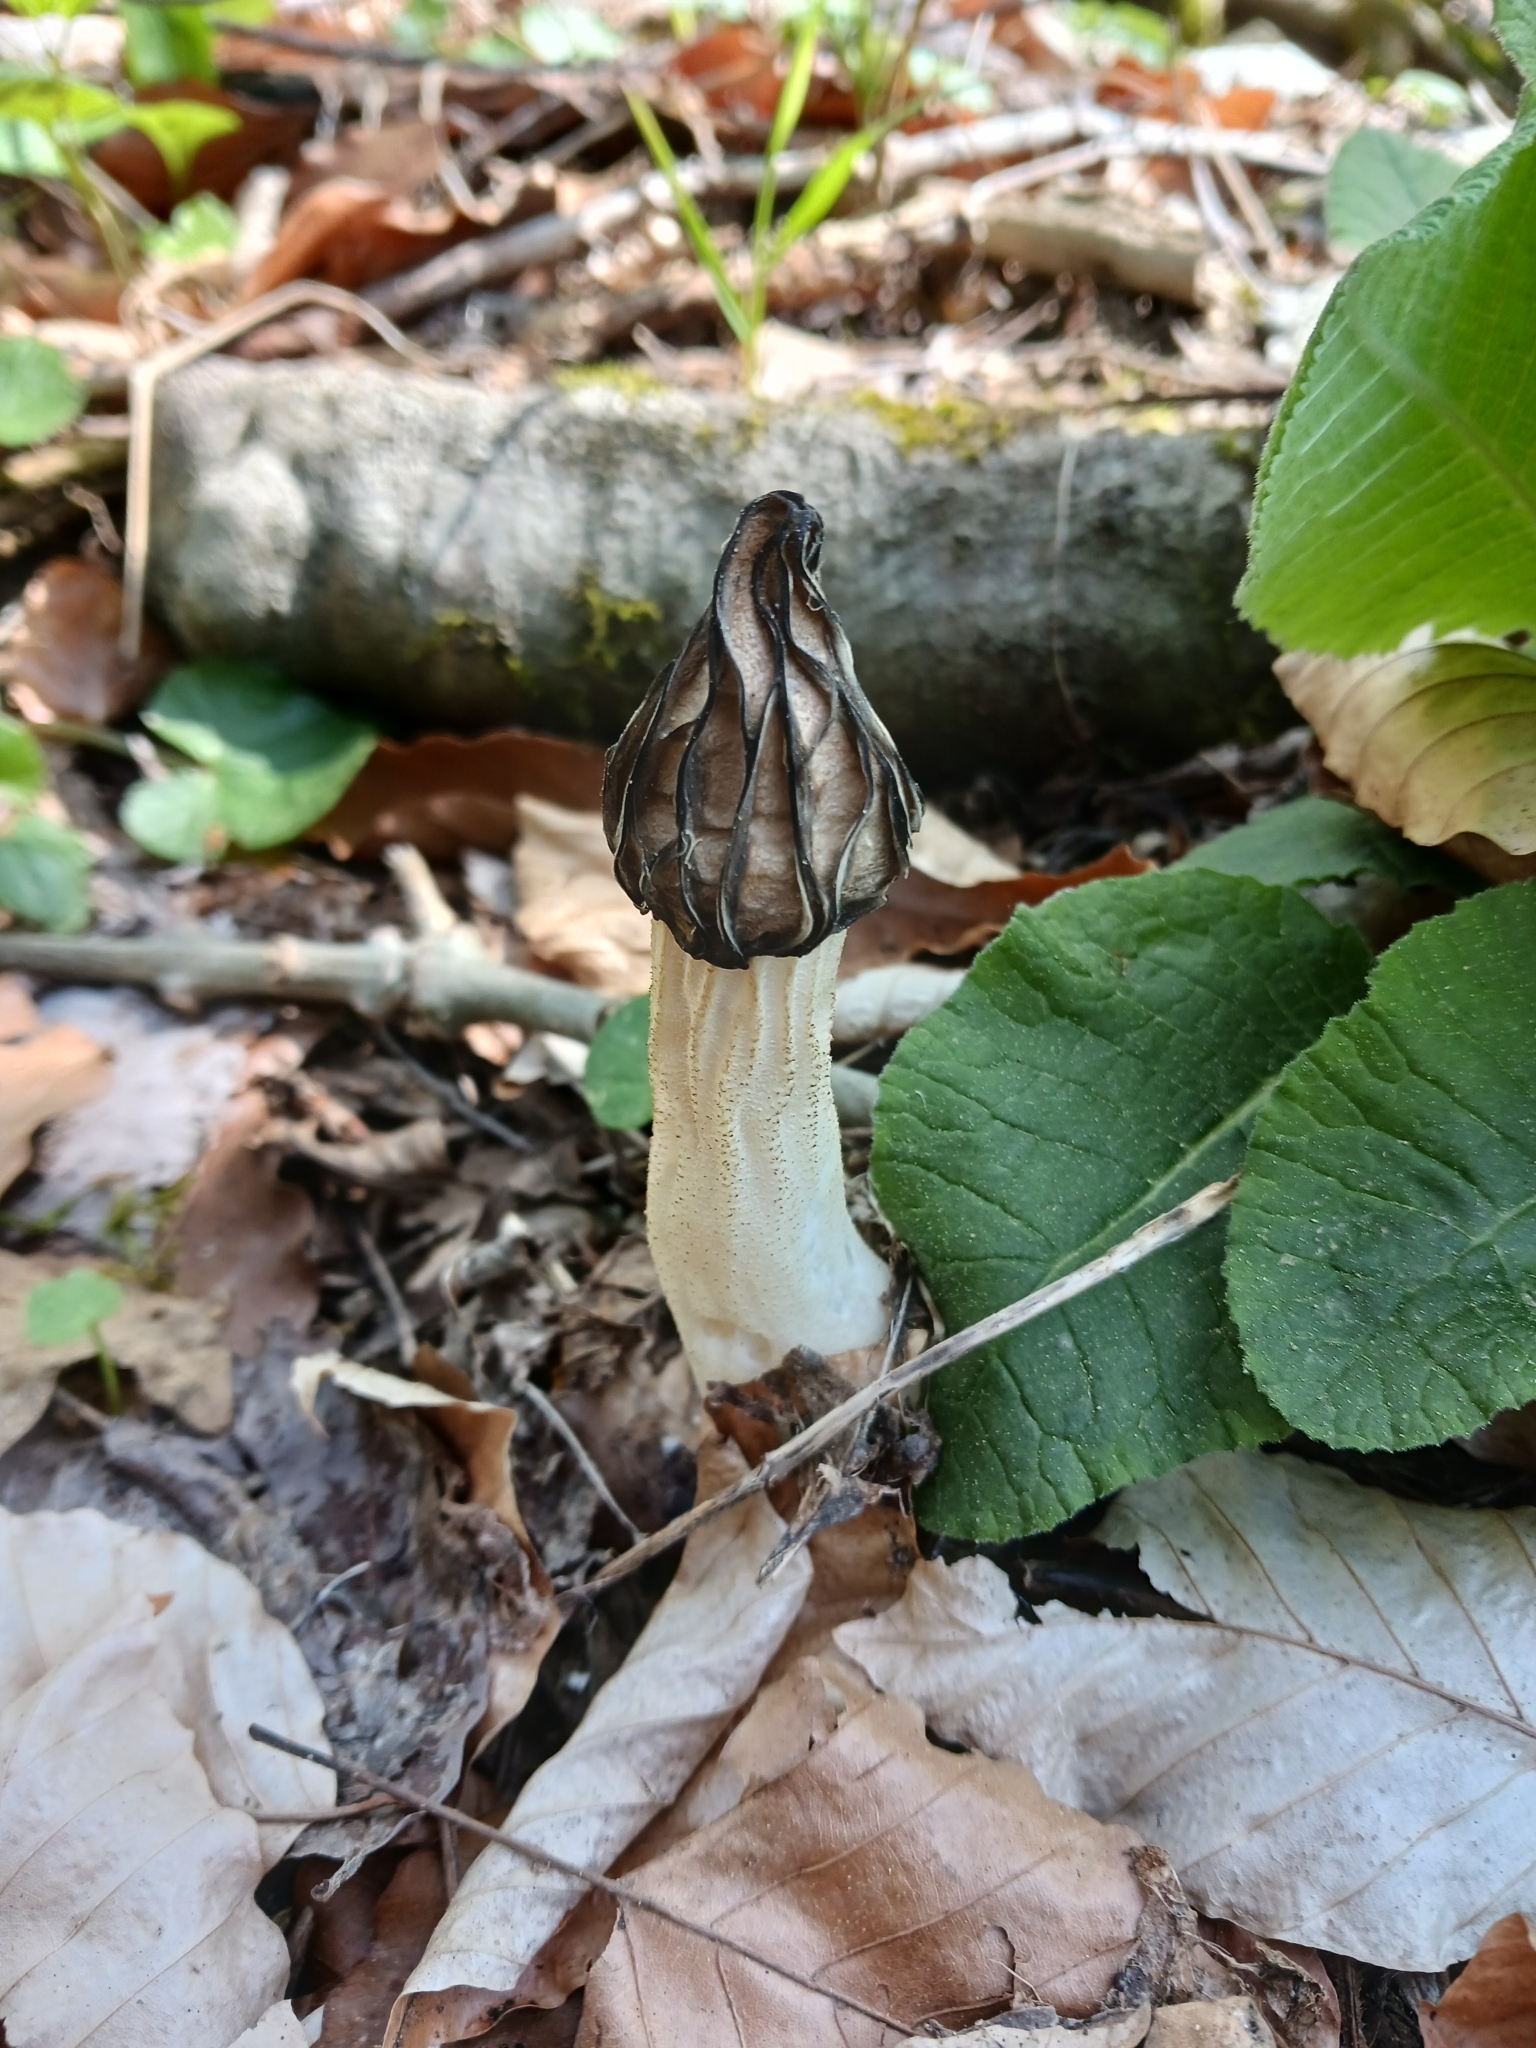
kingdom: Fungi
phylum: Ascomycota
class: Pezizomycetes
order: Pezizales
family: Morchellaceae
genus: Morchella
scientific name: Morchella semilibera
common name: Semifree morel
